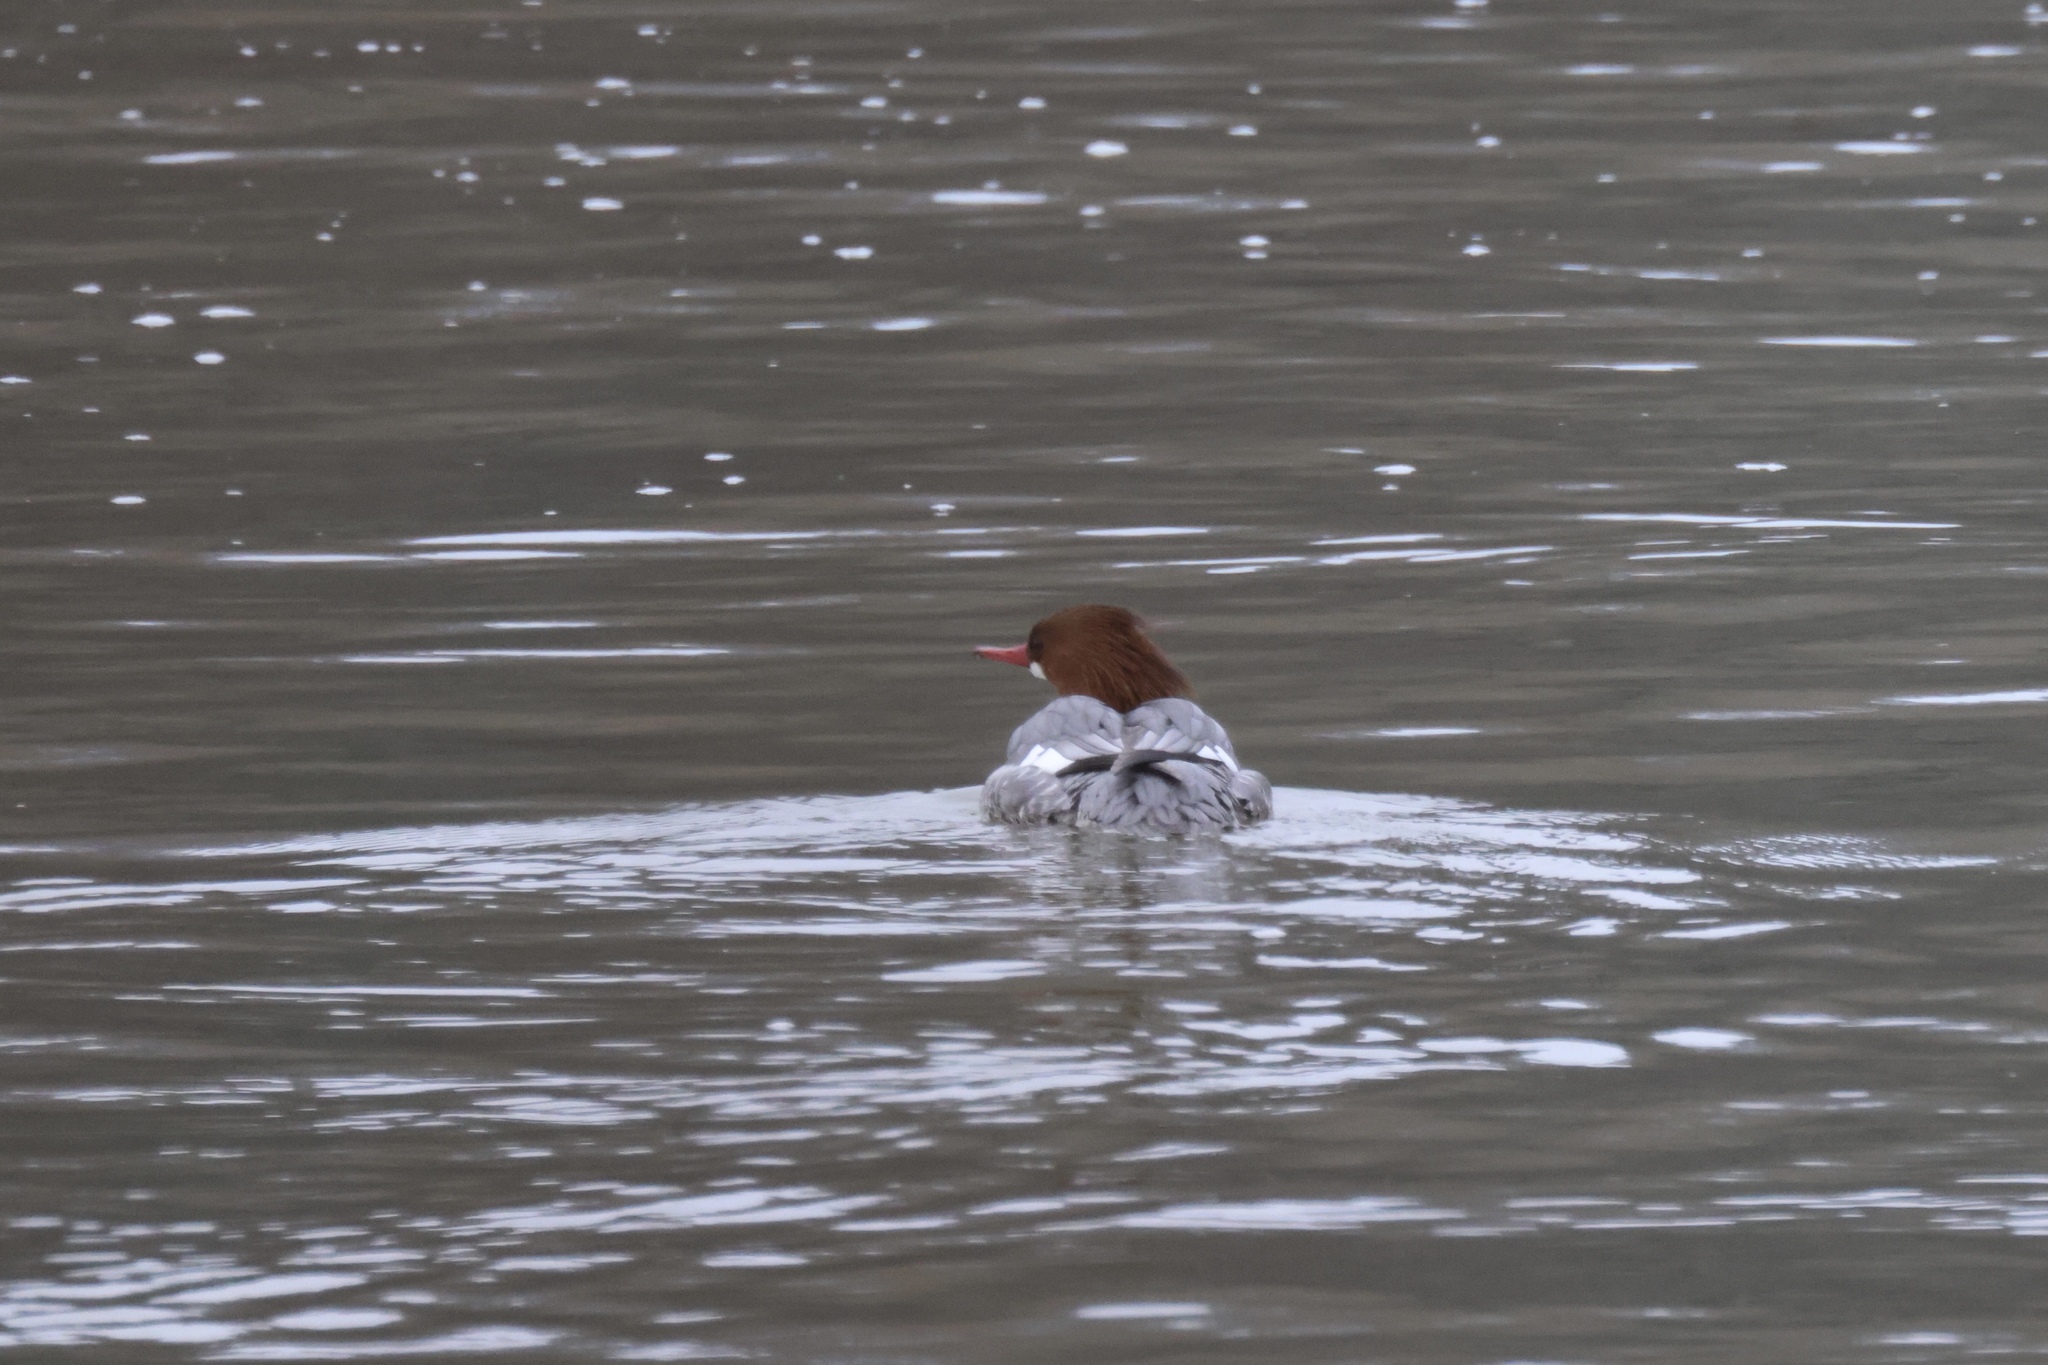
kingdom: Animalia
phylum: Chordata
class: Aves
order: Anseriformes
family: Anatidae
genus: Mergus
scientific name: Mergus merganser
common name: Common merganser
